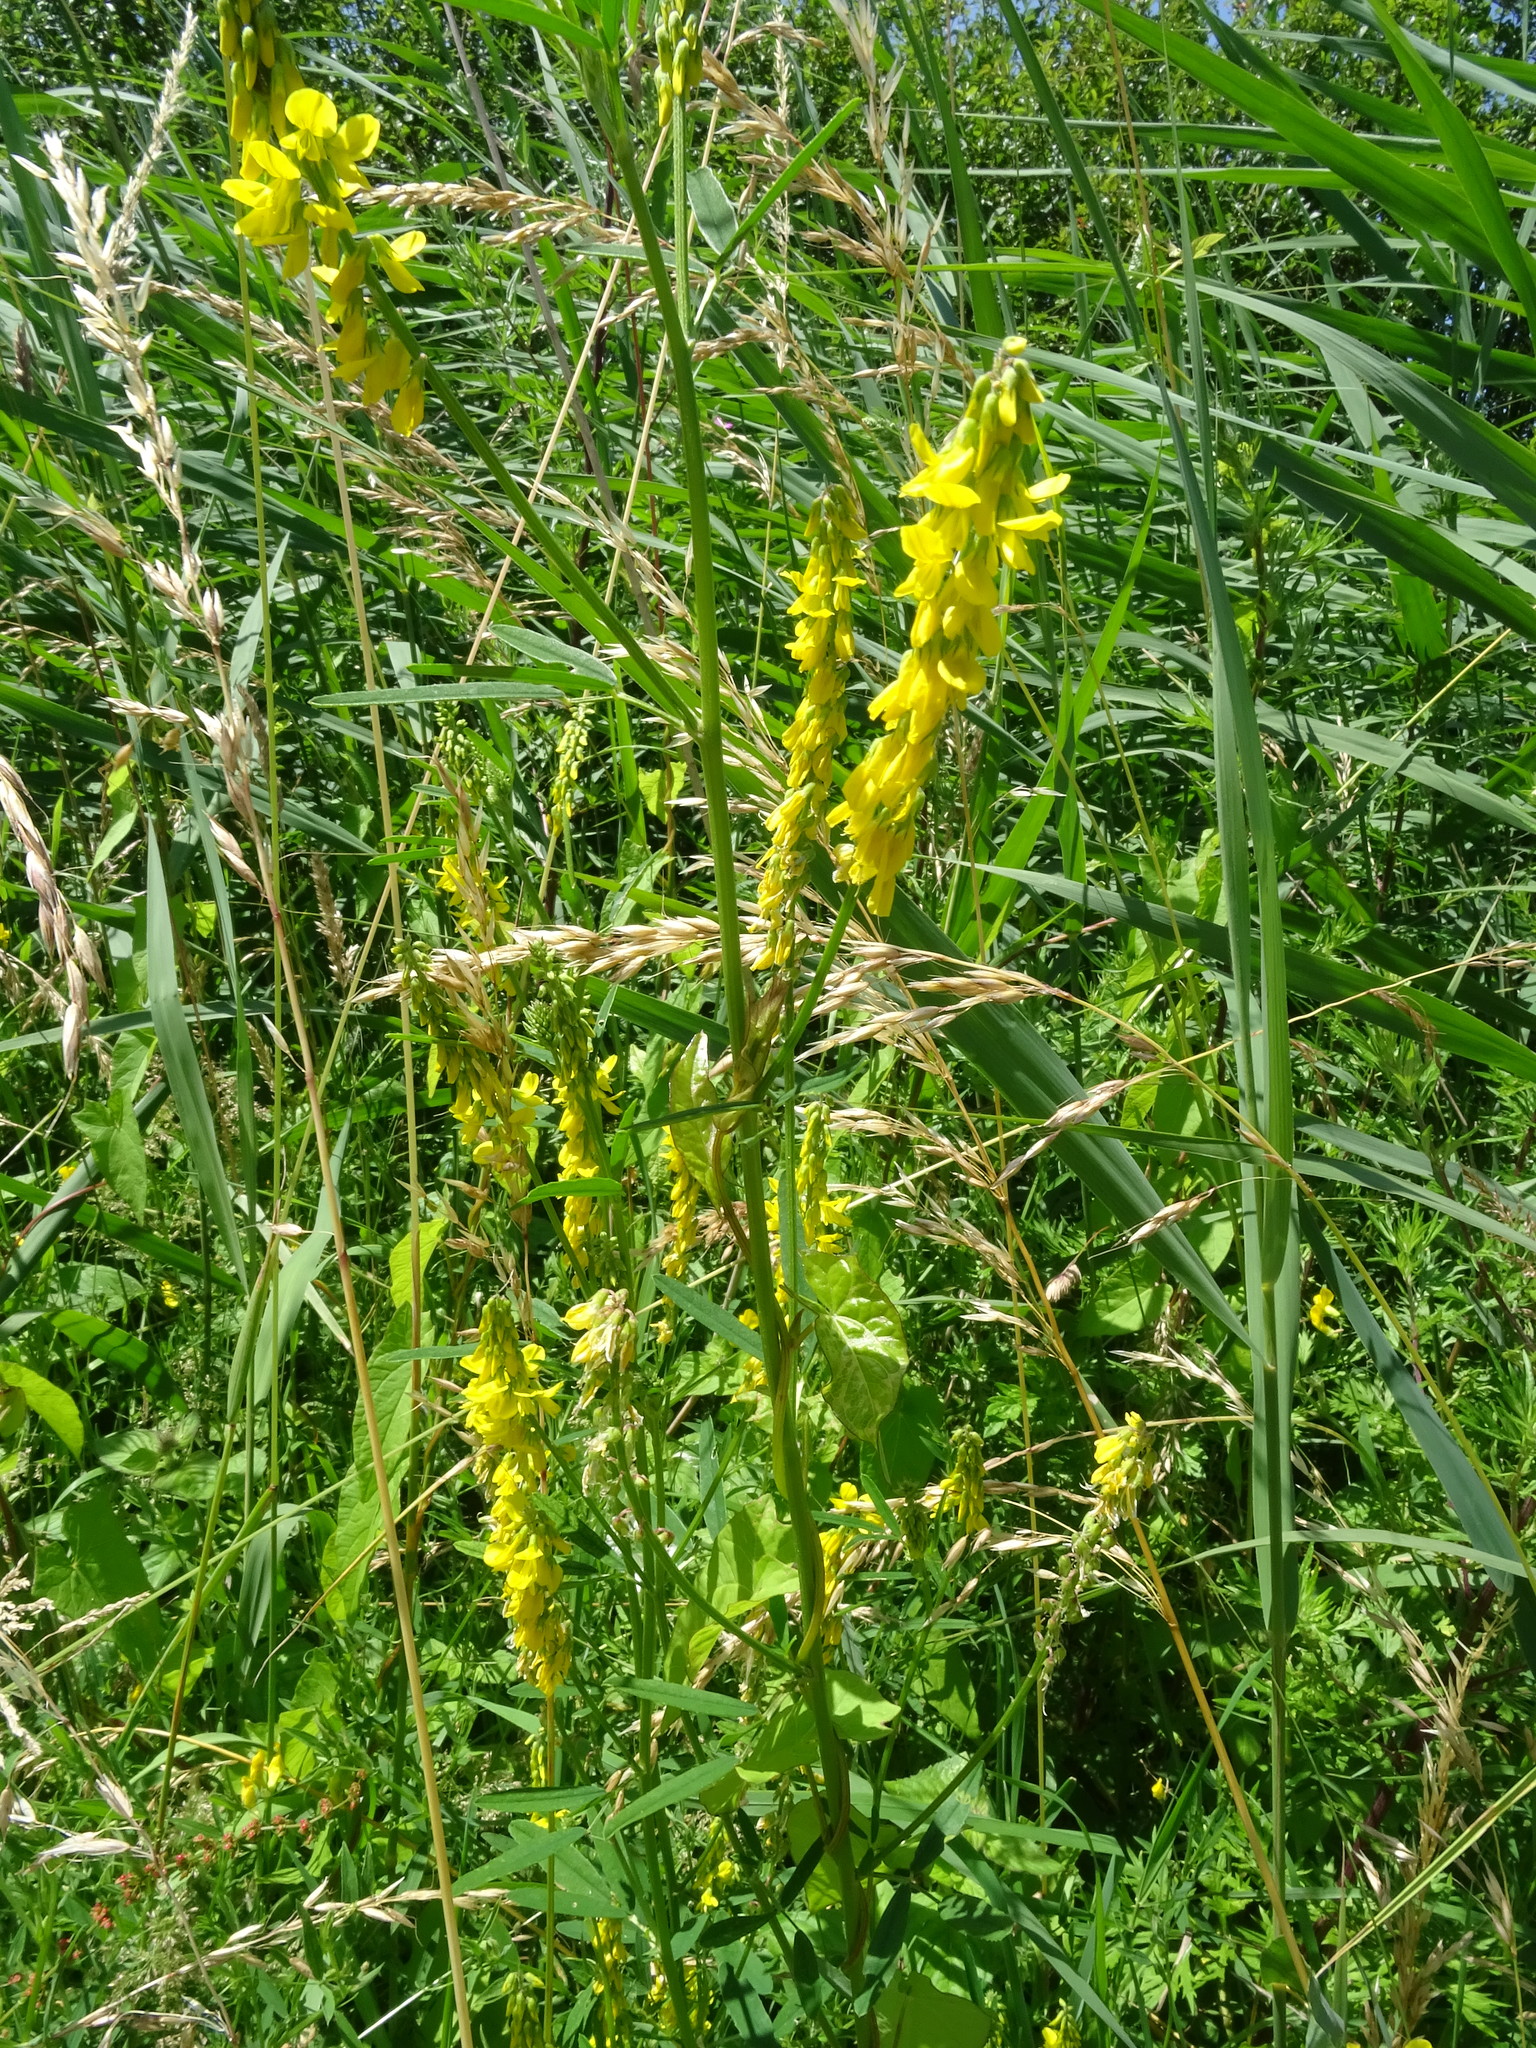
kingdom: Plantae
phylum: Tracheophyta
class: Magnoliopsida
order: Fabales
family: Fabaceae
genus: Melilotus
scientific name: Melilotus officinalis
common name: Sweetclover
